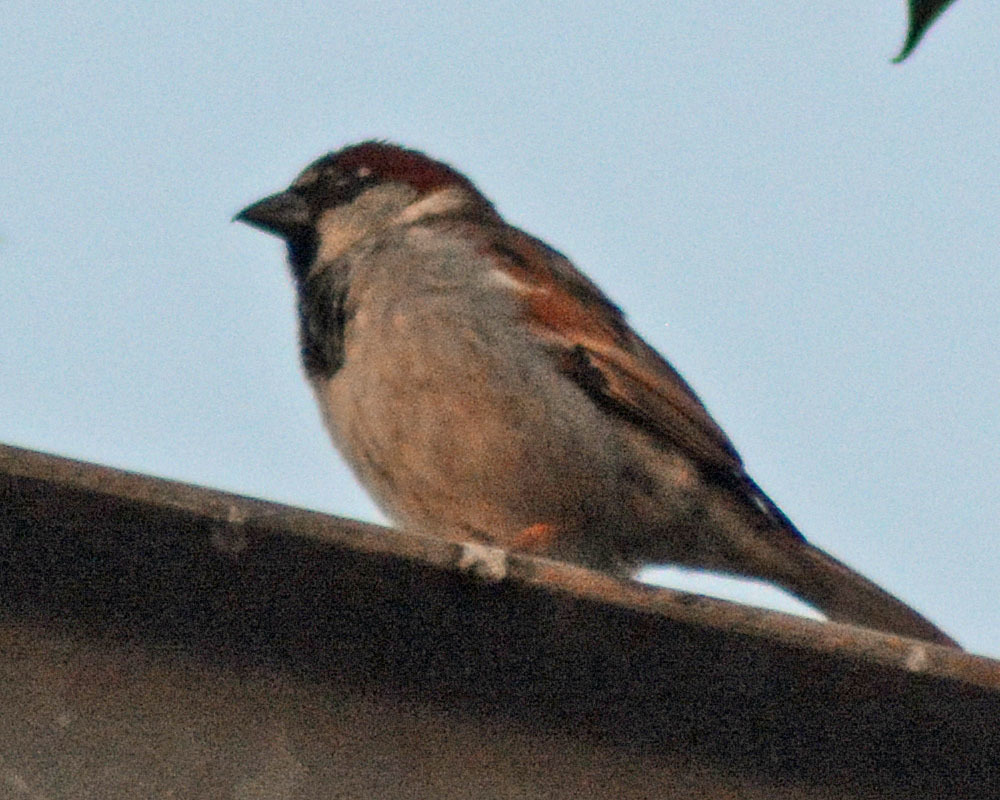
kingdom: Animalia
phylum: Chordata
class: Aves
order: Passeriformes
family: Passeridae
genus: Passer
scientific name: Passer domesticus
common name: House sparrow
